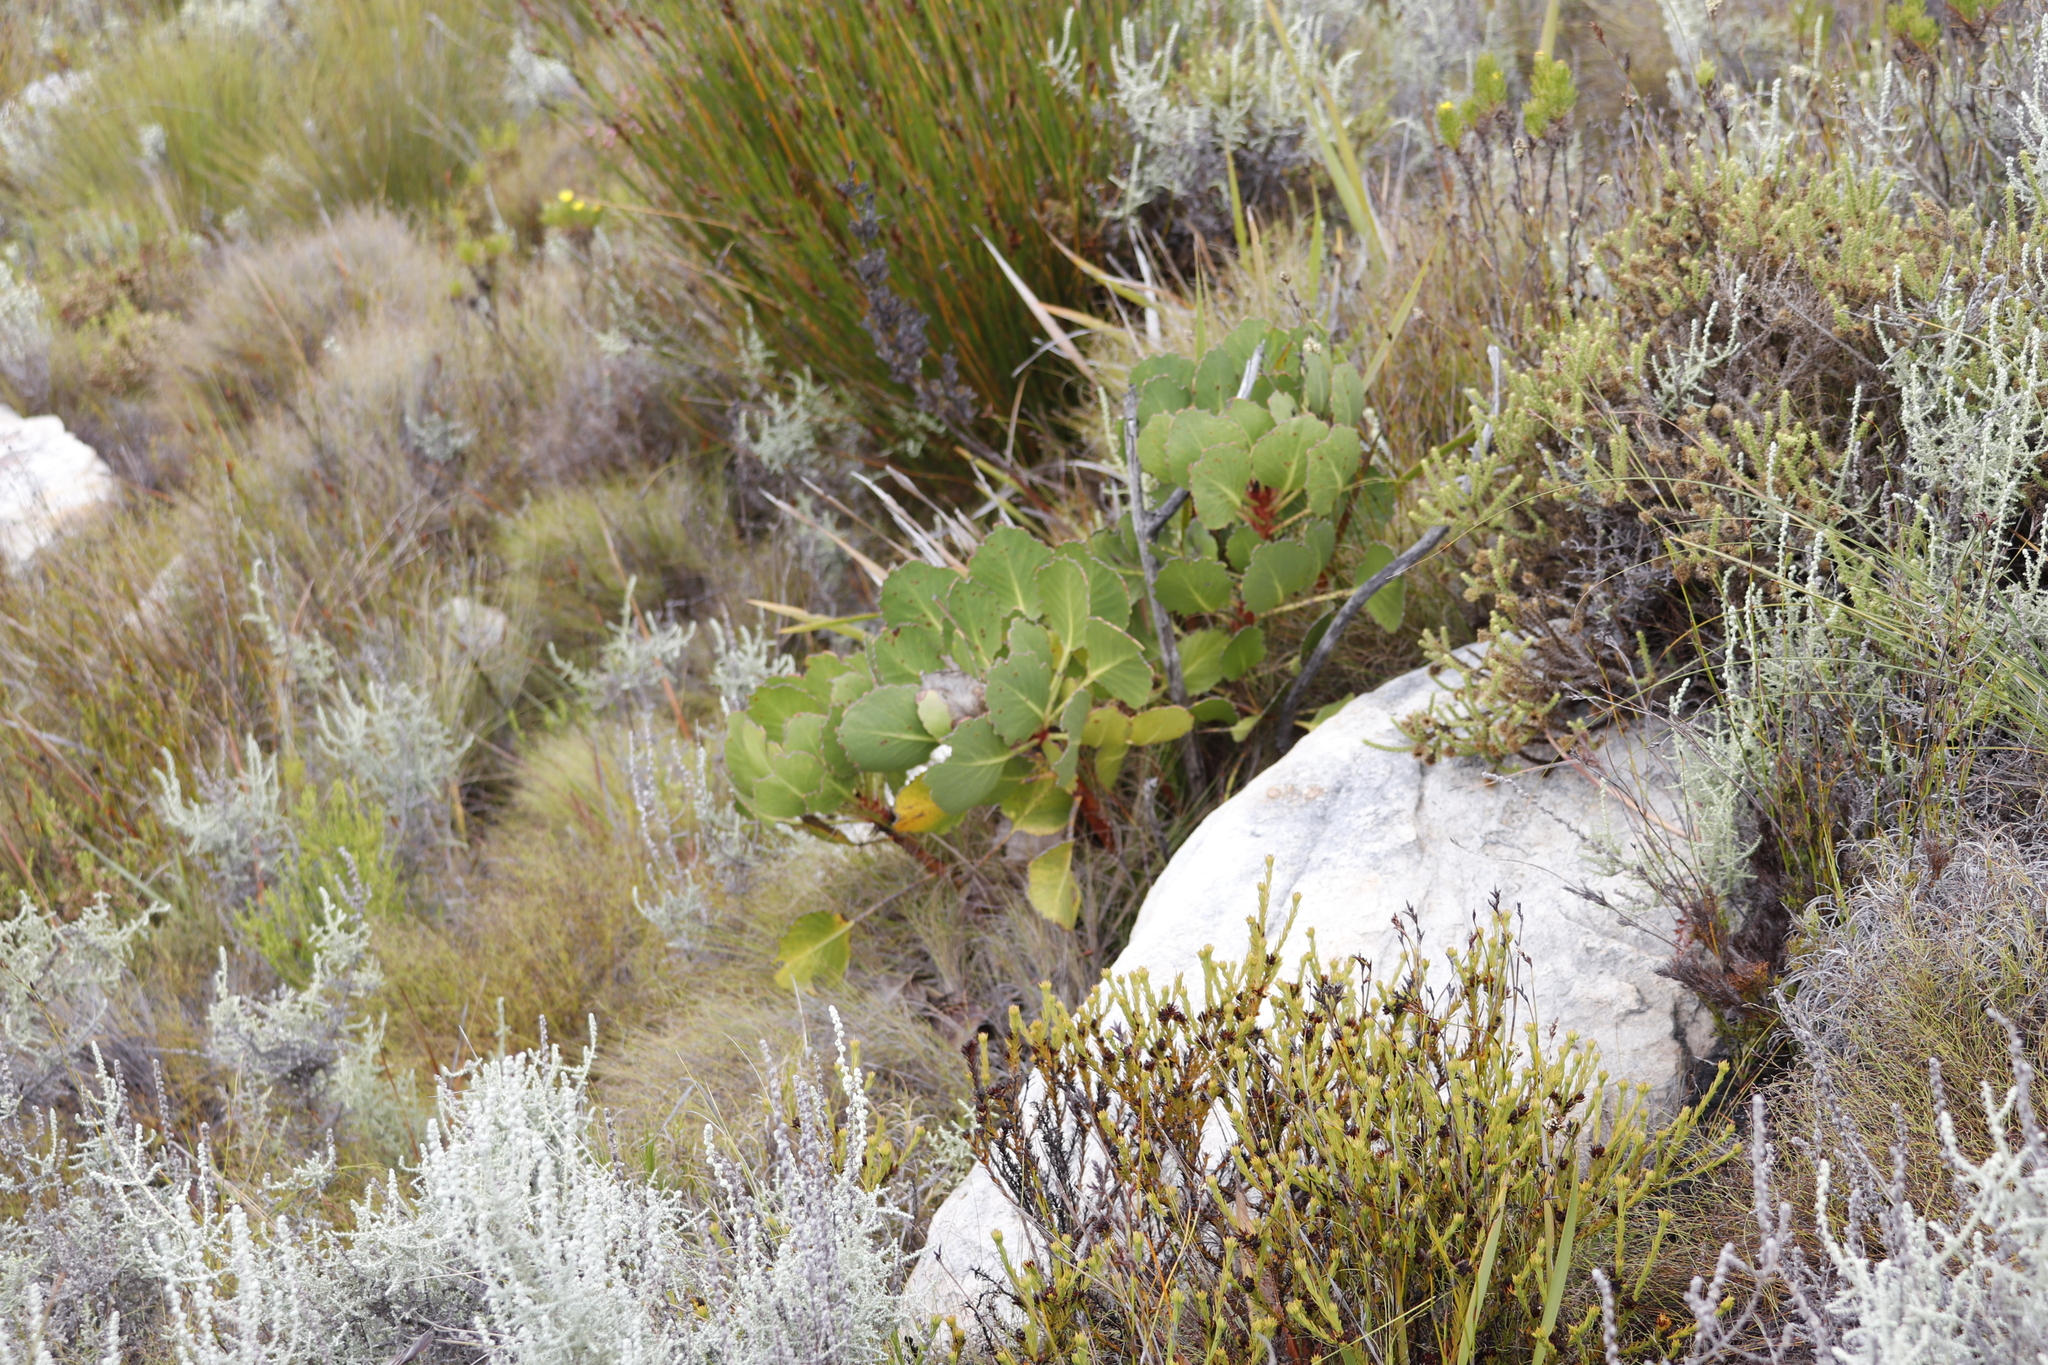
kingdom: Plantae
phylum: Tracheophyta
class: Magnoliopsida
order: Proteales
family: Proteaceae
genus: Protea
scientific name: Protea cynaroides
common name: King protea
